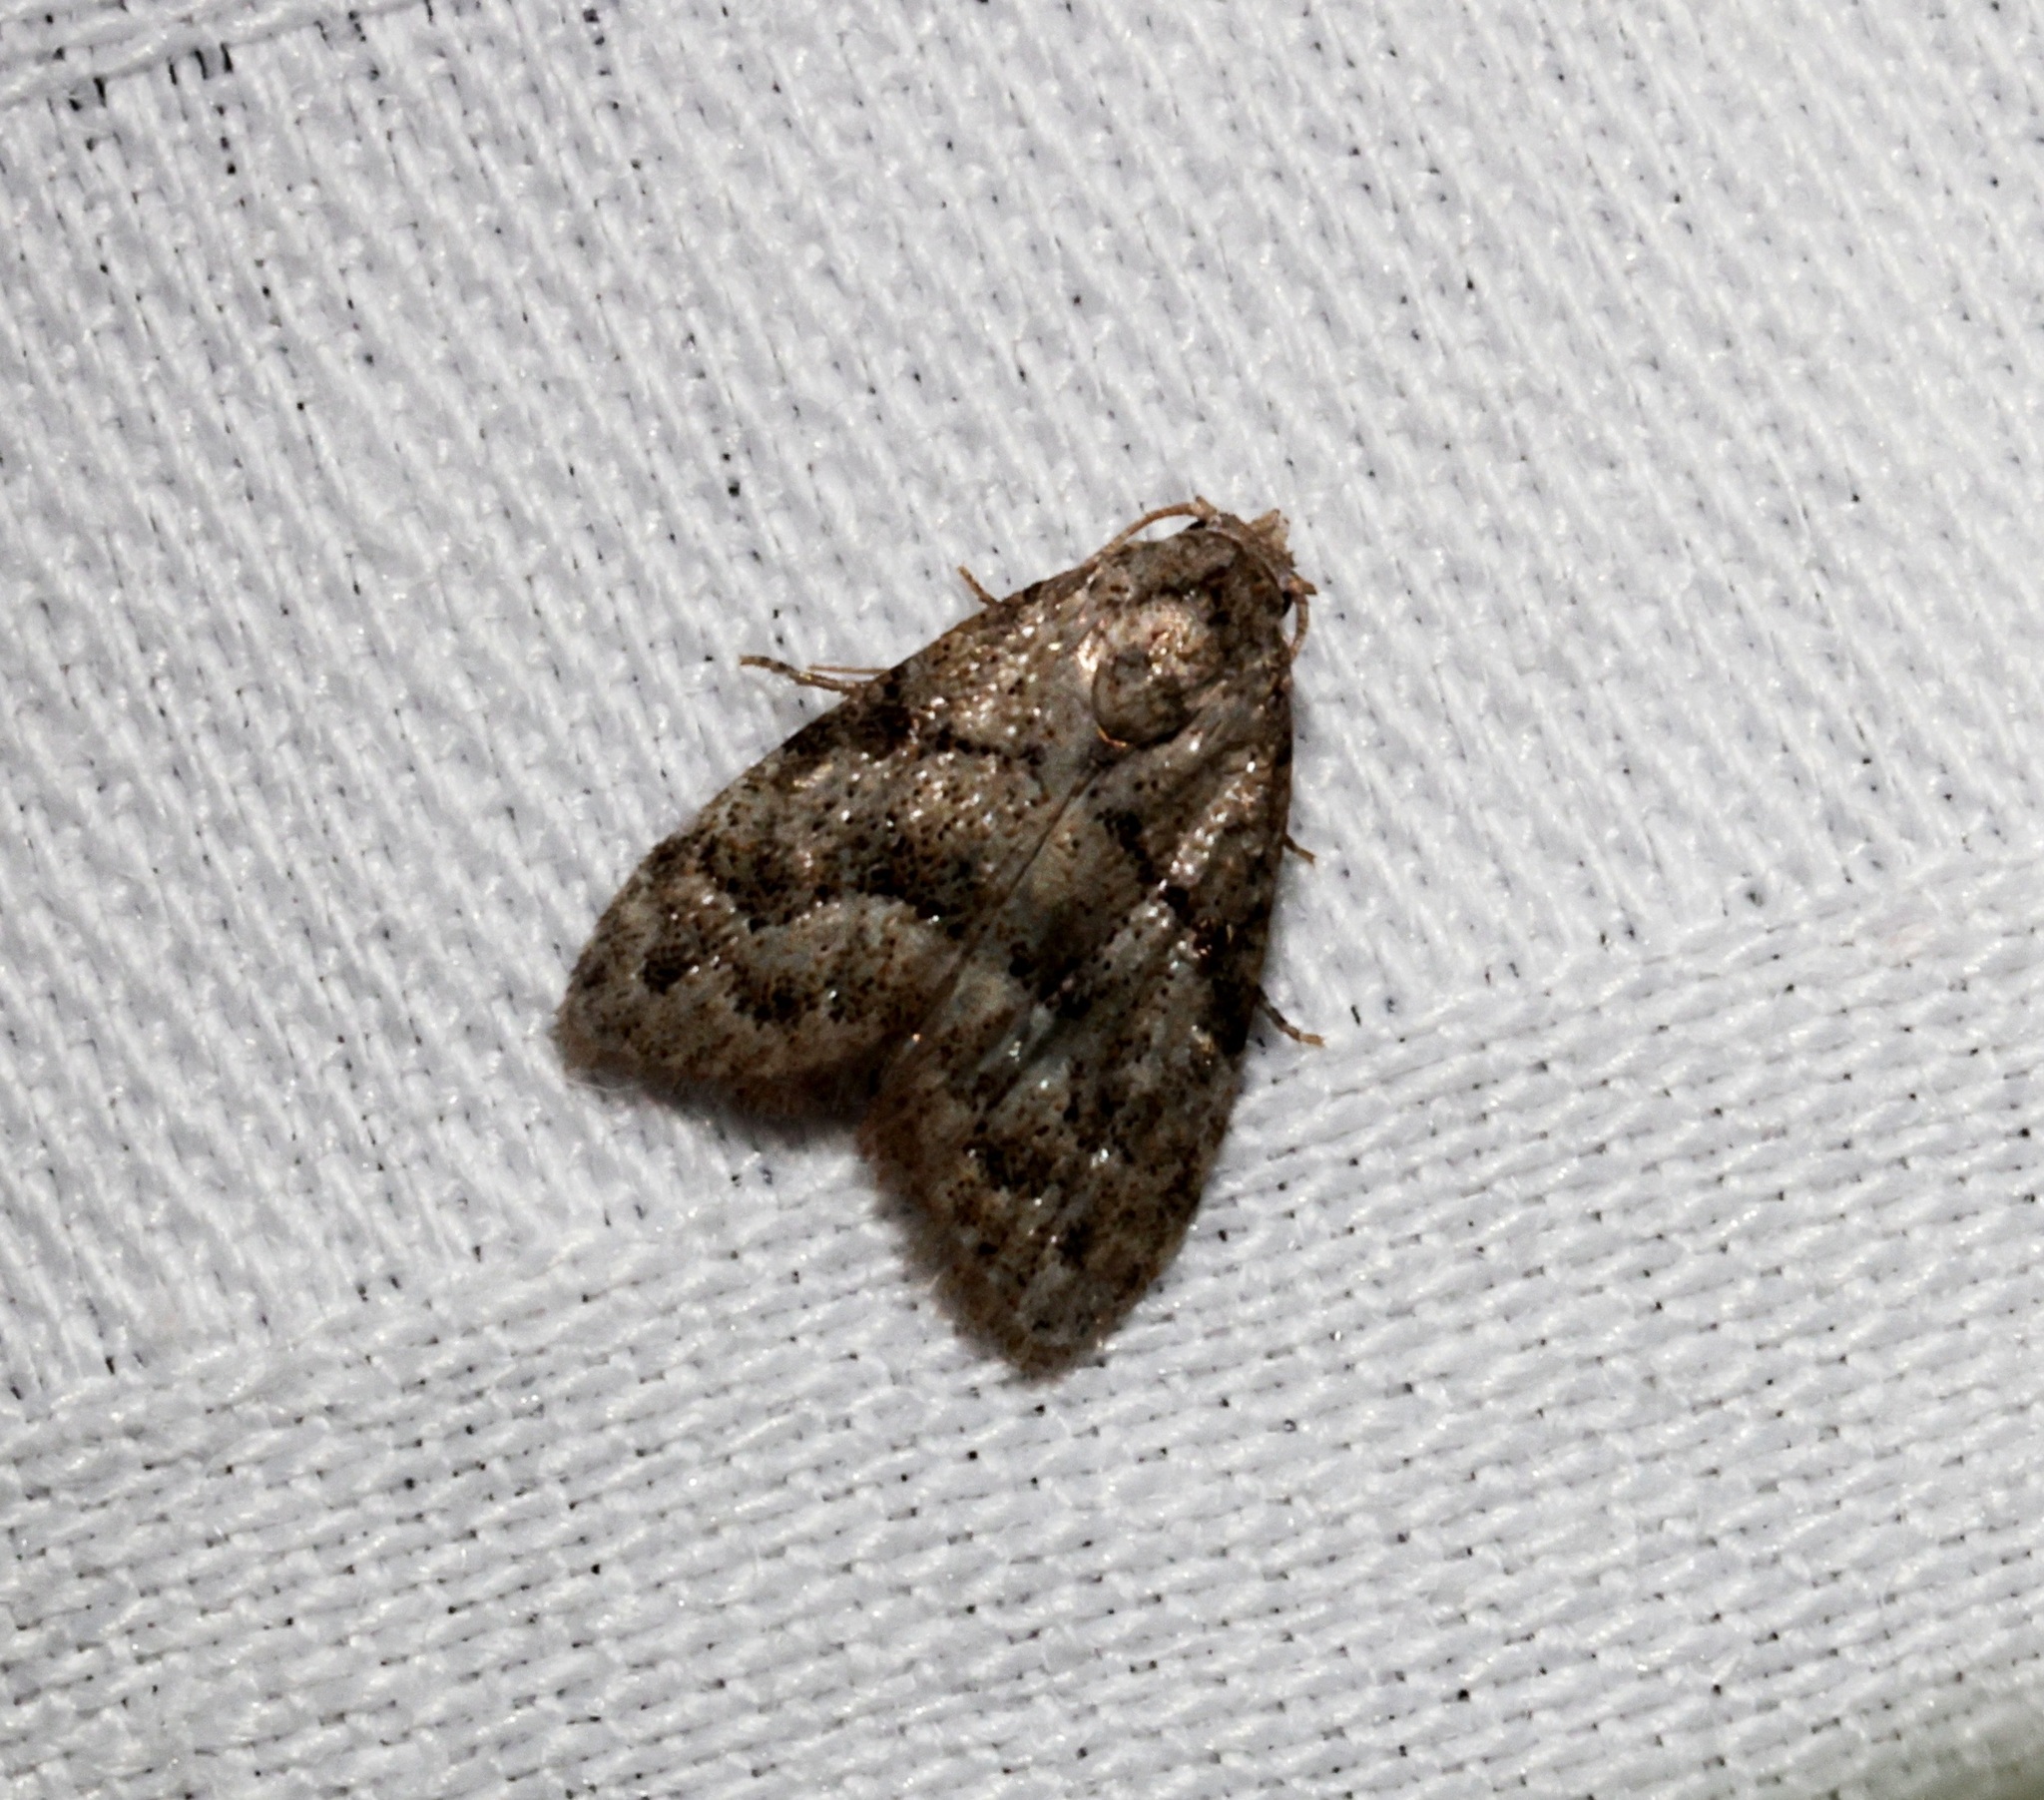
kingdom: Animalia
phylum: Arthropoda
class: Insecta
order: Lepidoptera
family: Nolidae
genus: Inouenola
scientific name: Inouenola pallescens
